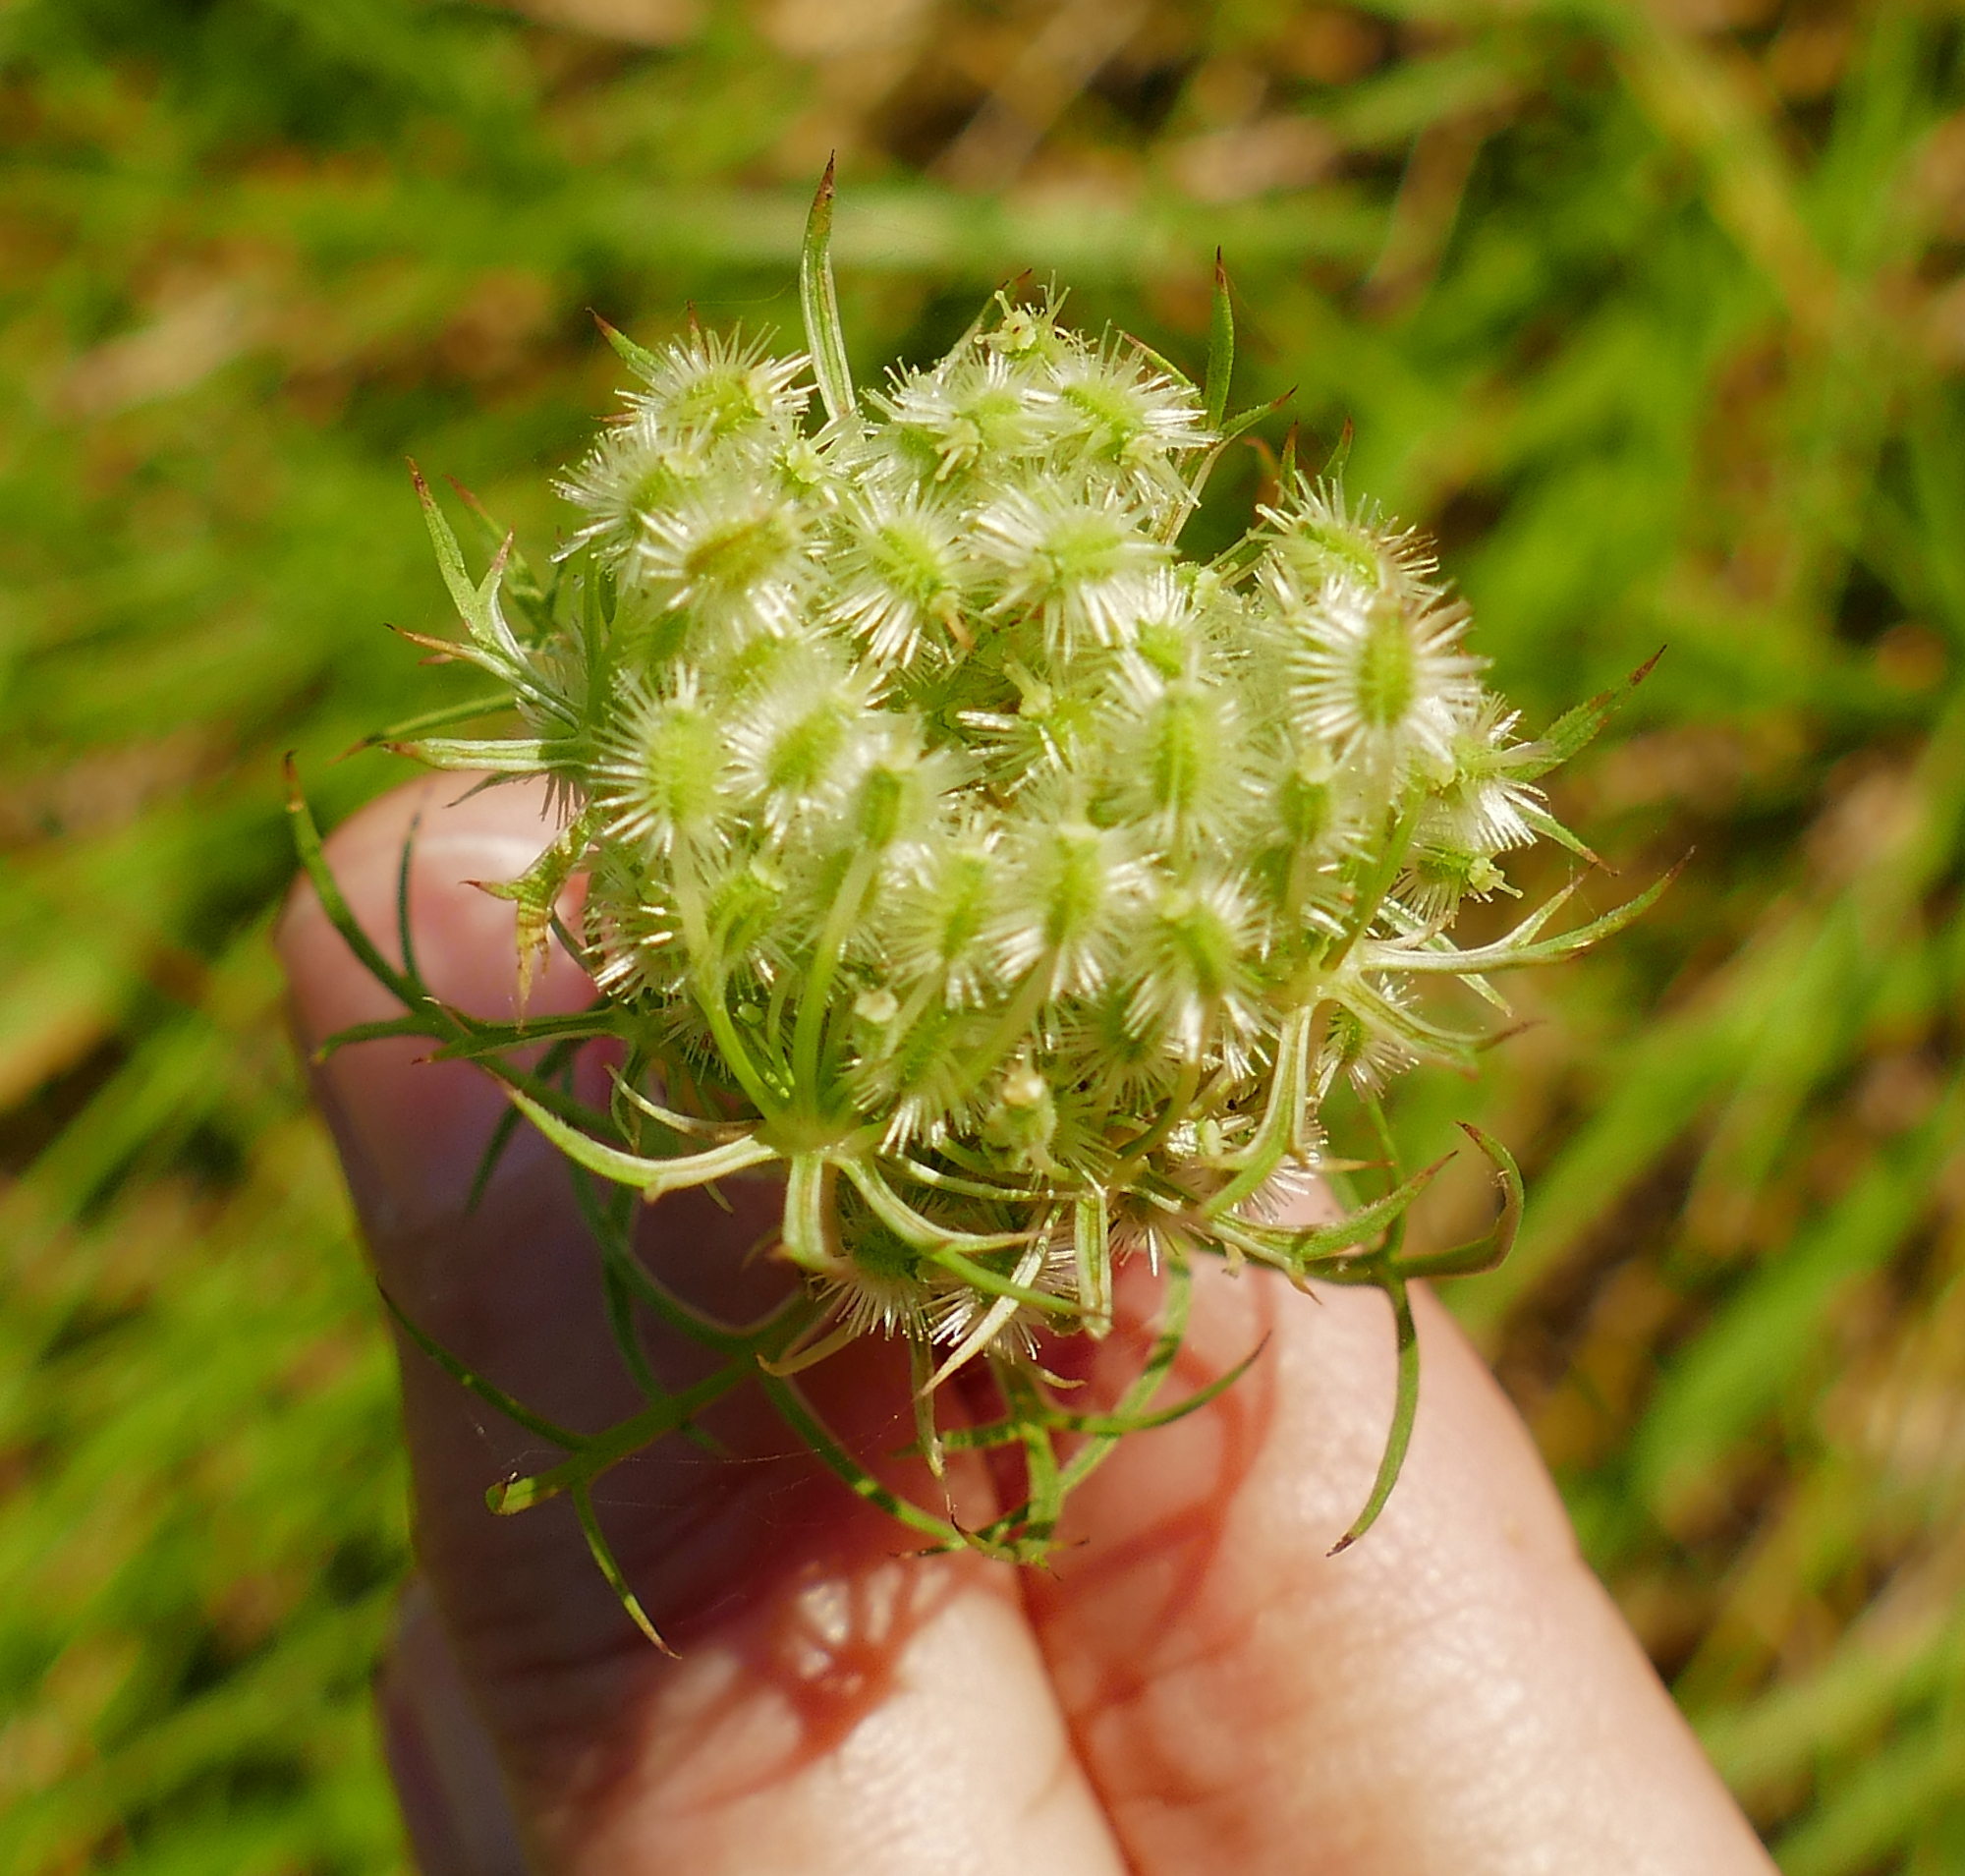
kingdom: Plantae
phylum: Tracheophyta
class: Magnoliopsida
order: Apiales
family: Apiaceae
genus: Daucus
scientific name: Daucus carota
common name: Wild carrot
